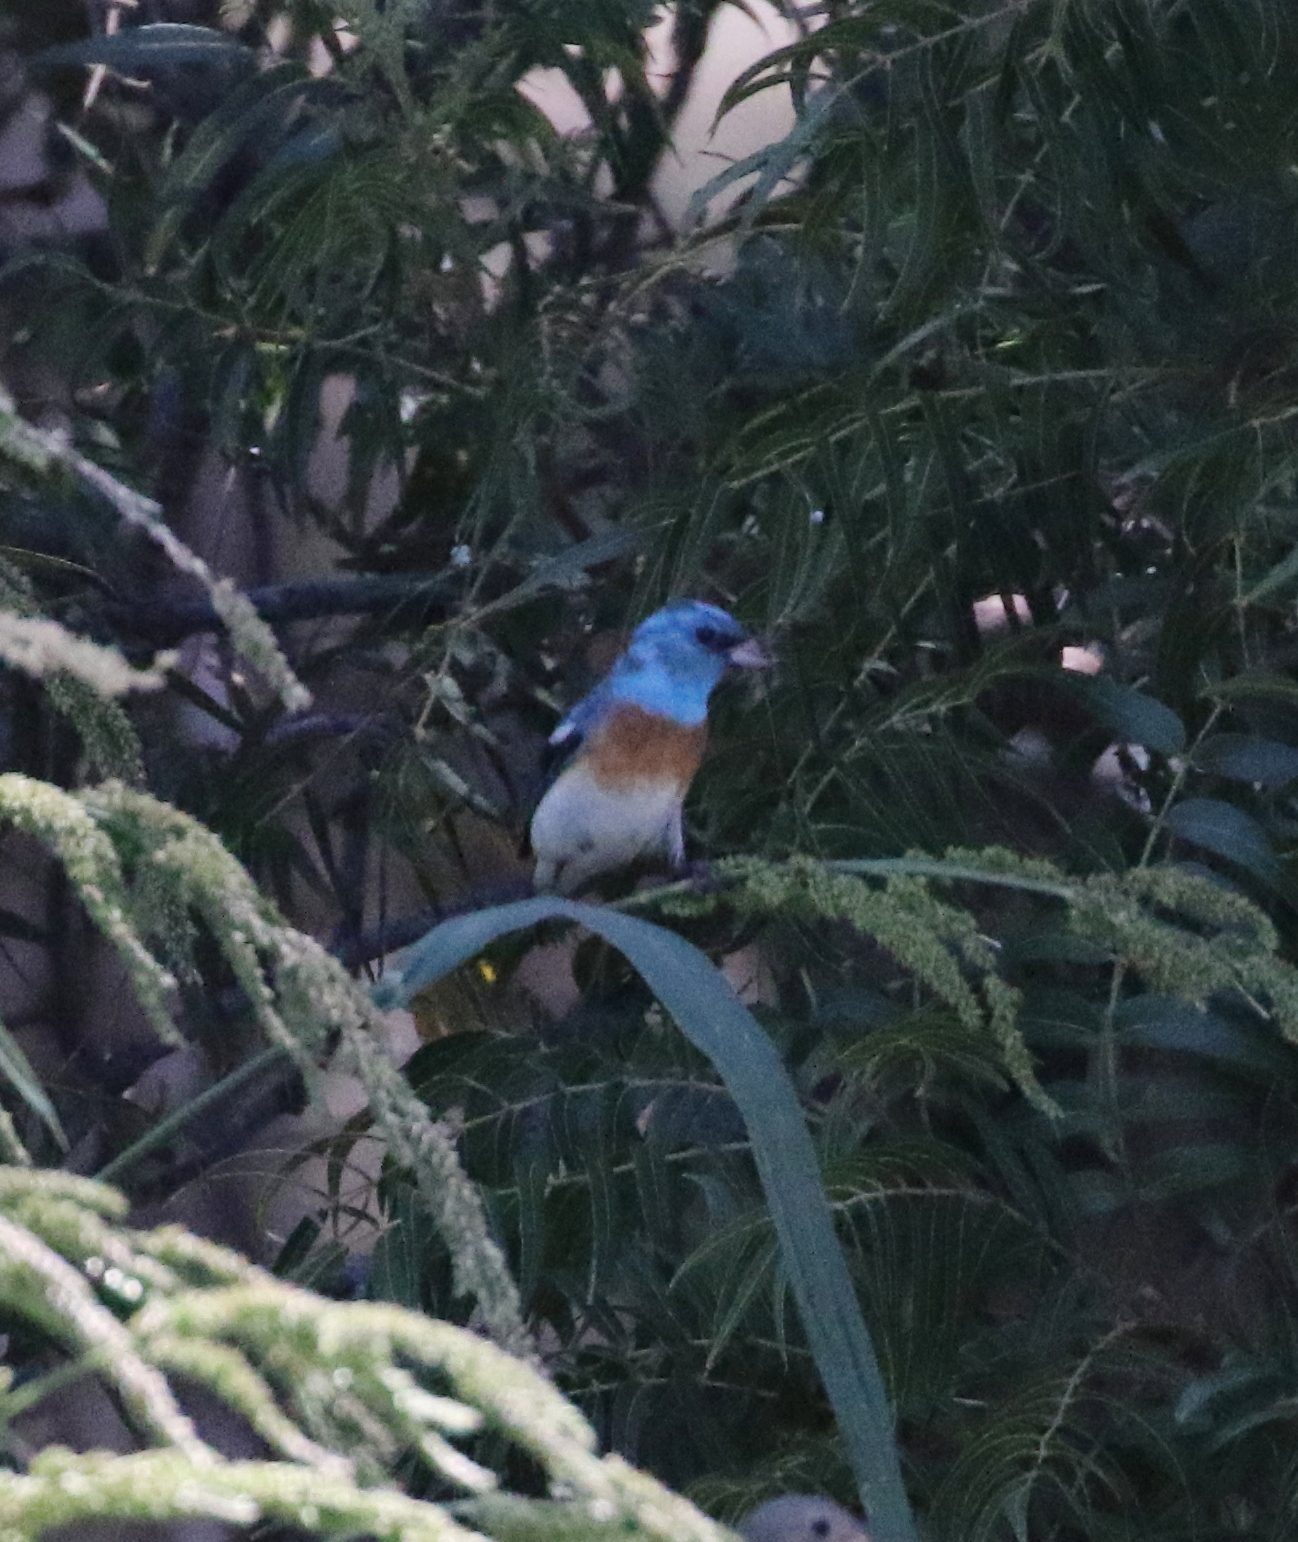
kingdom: Animalia
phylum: Chordata
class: Aves
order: Passeriformes
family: Cardinalidae
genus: Passerina
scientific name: Passerina amoena
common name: Lazuli bunting
